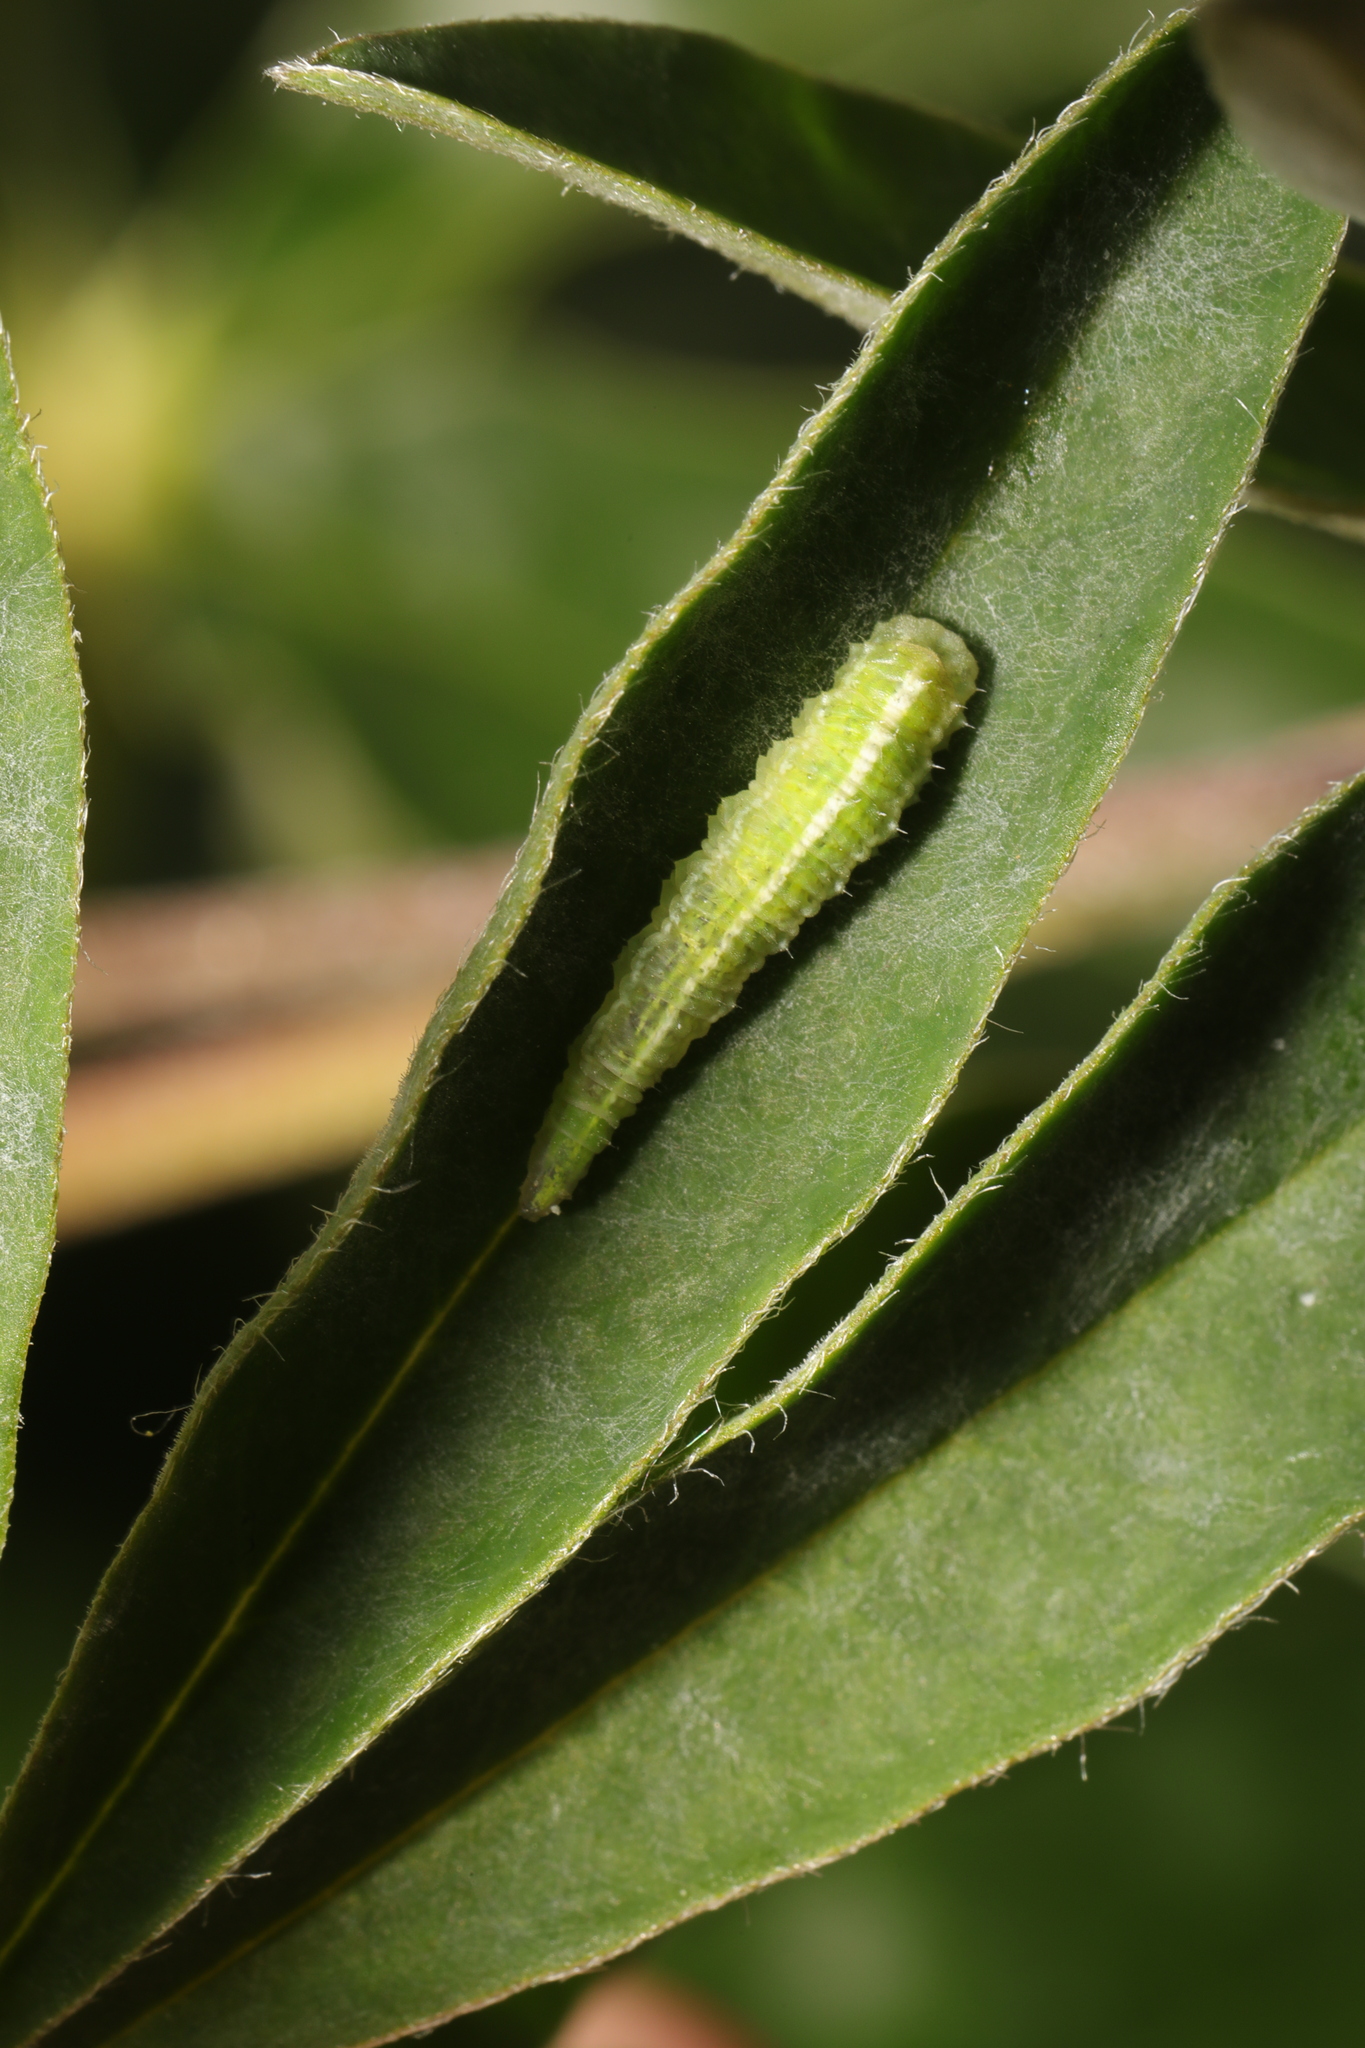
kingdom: Animalia
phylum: Arthropoda
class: Insecta
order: Hemiptera
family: Aphididae
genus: Macrosiphum
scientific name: Macrosiphum albifrons
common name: Lupine aphid
